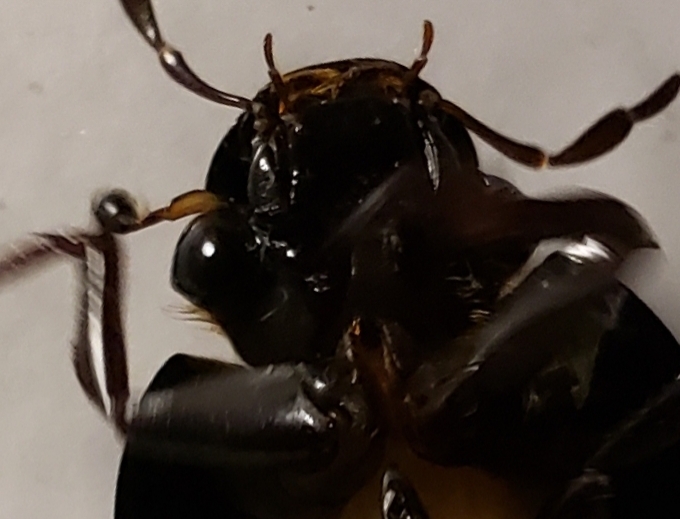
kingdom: Animalia
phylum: Arthropoda
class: Insecta
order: Coleoptera
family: Hydrophilidae
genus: Hydrophilus
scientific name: Hydrophilus ovatus
